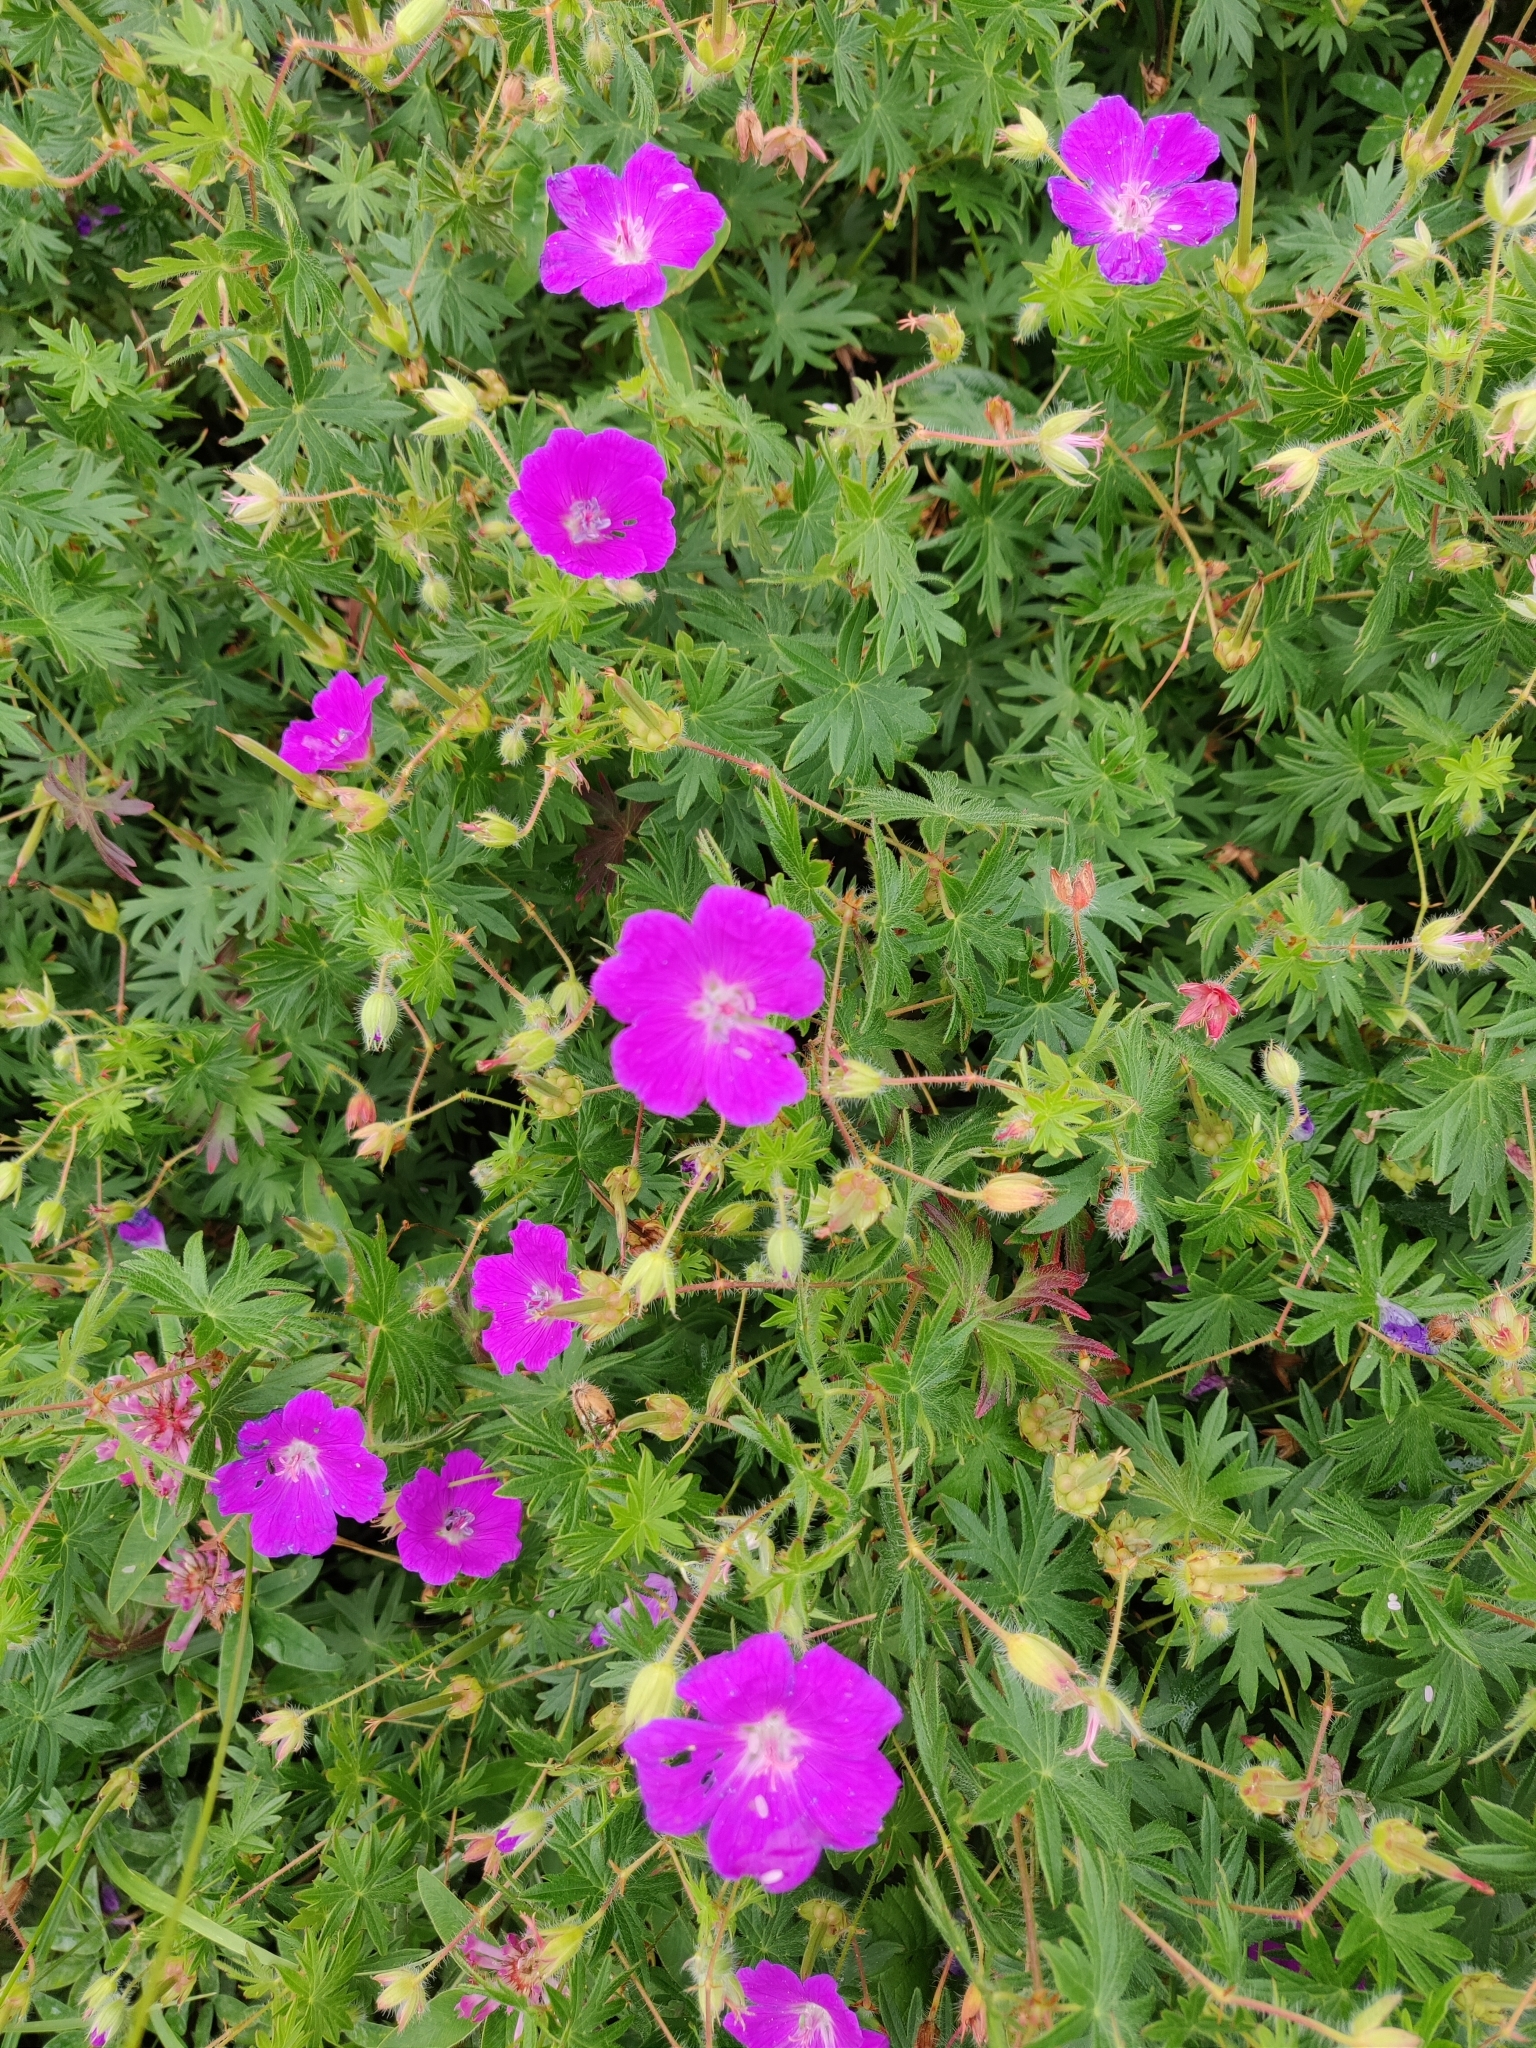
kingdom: Plantae
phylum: Tracheophyta
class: Magnoliopsida
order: Geraniales
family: Geraniaceae
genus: Geranium
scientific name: Geranium sanguineum
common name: Bloody crane's-bill
